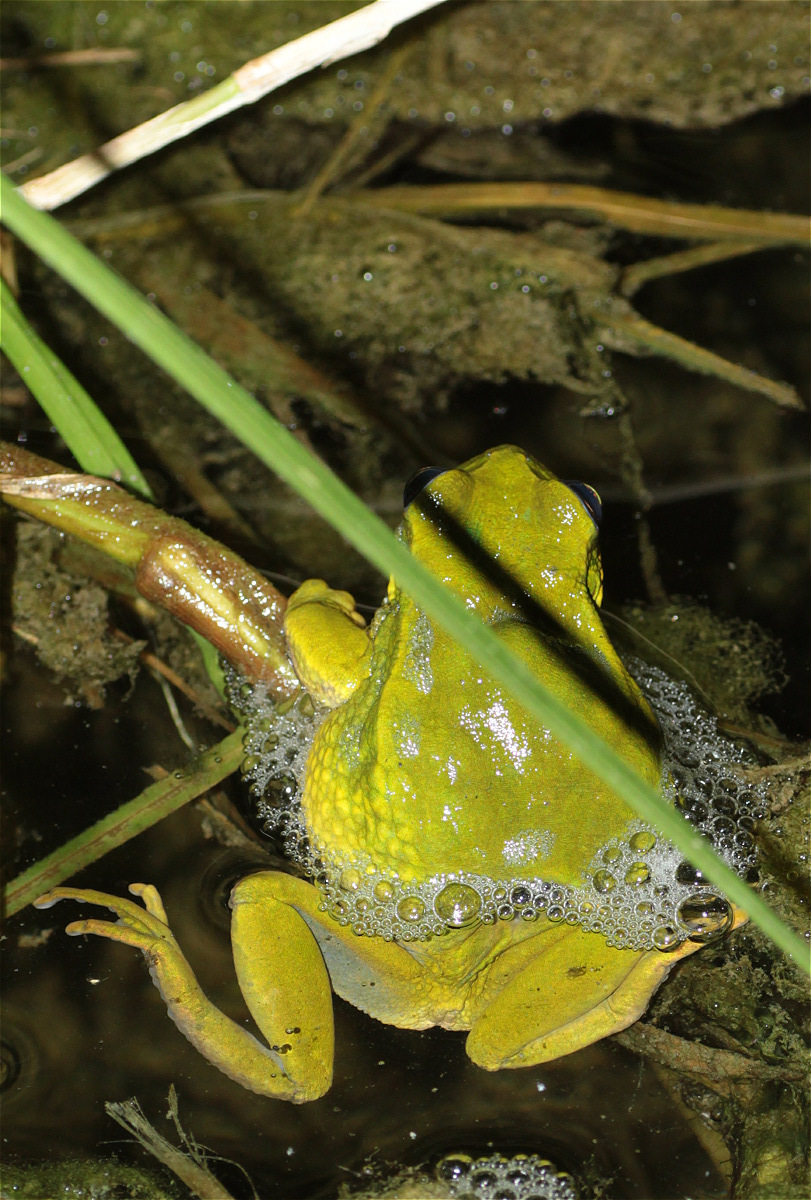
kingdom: Animalia
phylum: Chordata
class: Amphibia
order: Anura
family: Hemiphractidae
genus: Gastrotheca
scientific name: Gastrotheca cuencana
